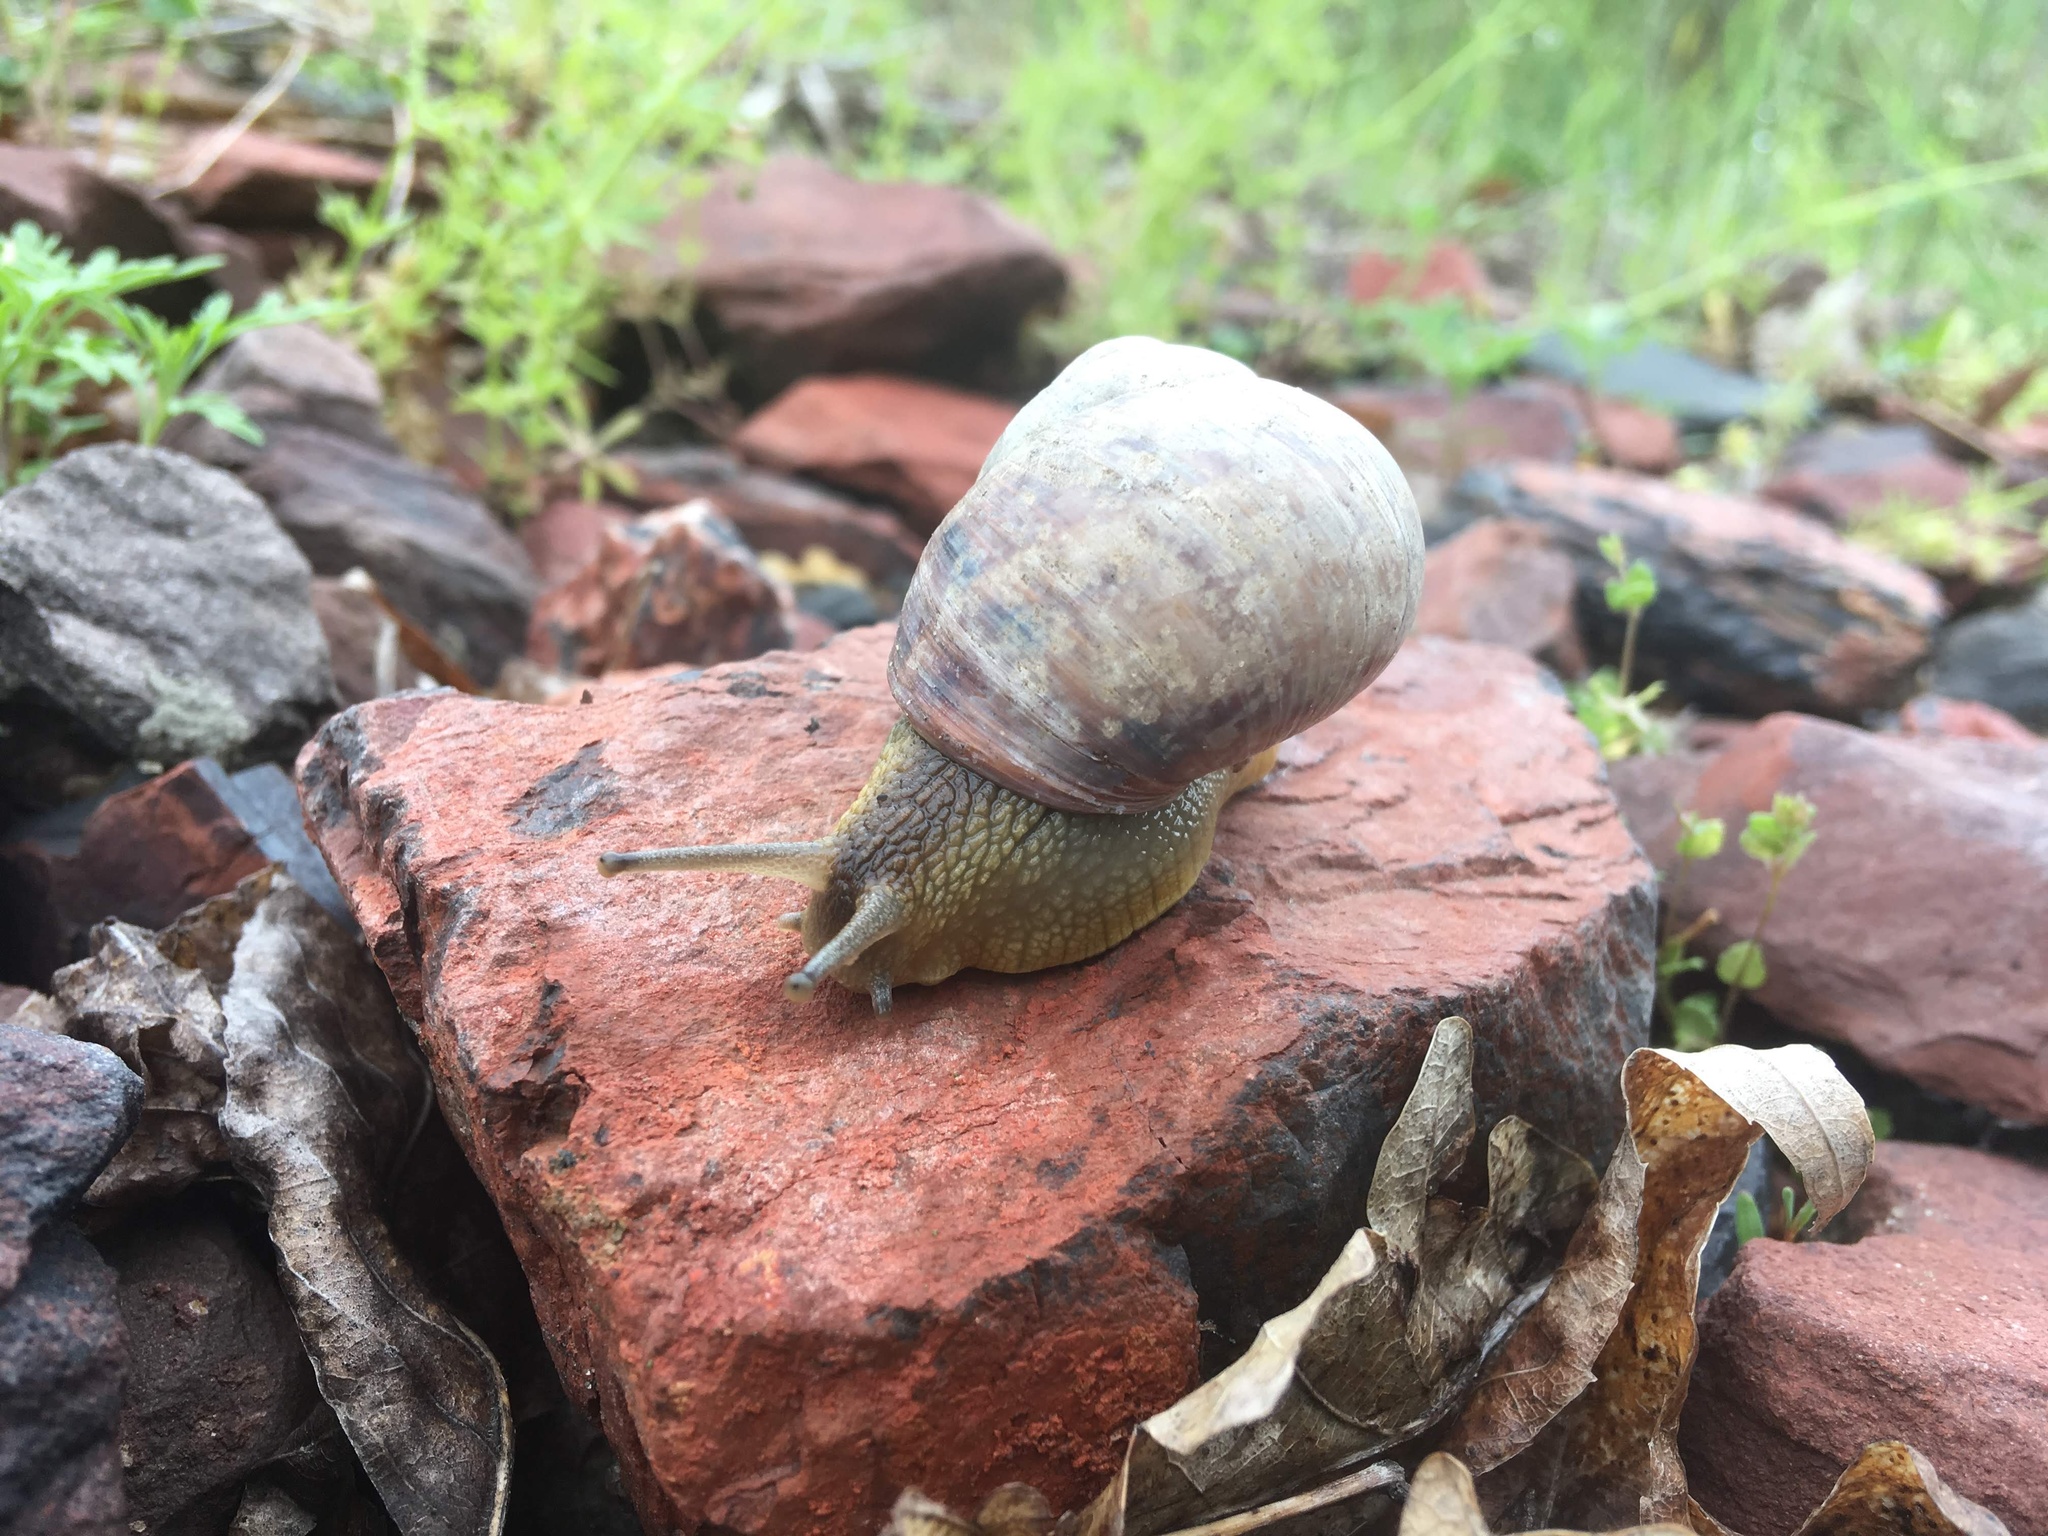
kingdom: Animalia
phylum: Mollusca
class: Gastropoda
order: Stylommatophora
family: Helicidae
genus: Helix
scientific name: Helix albescens
